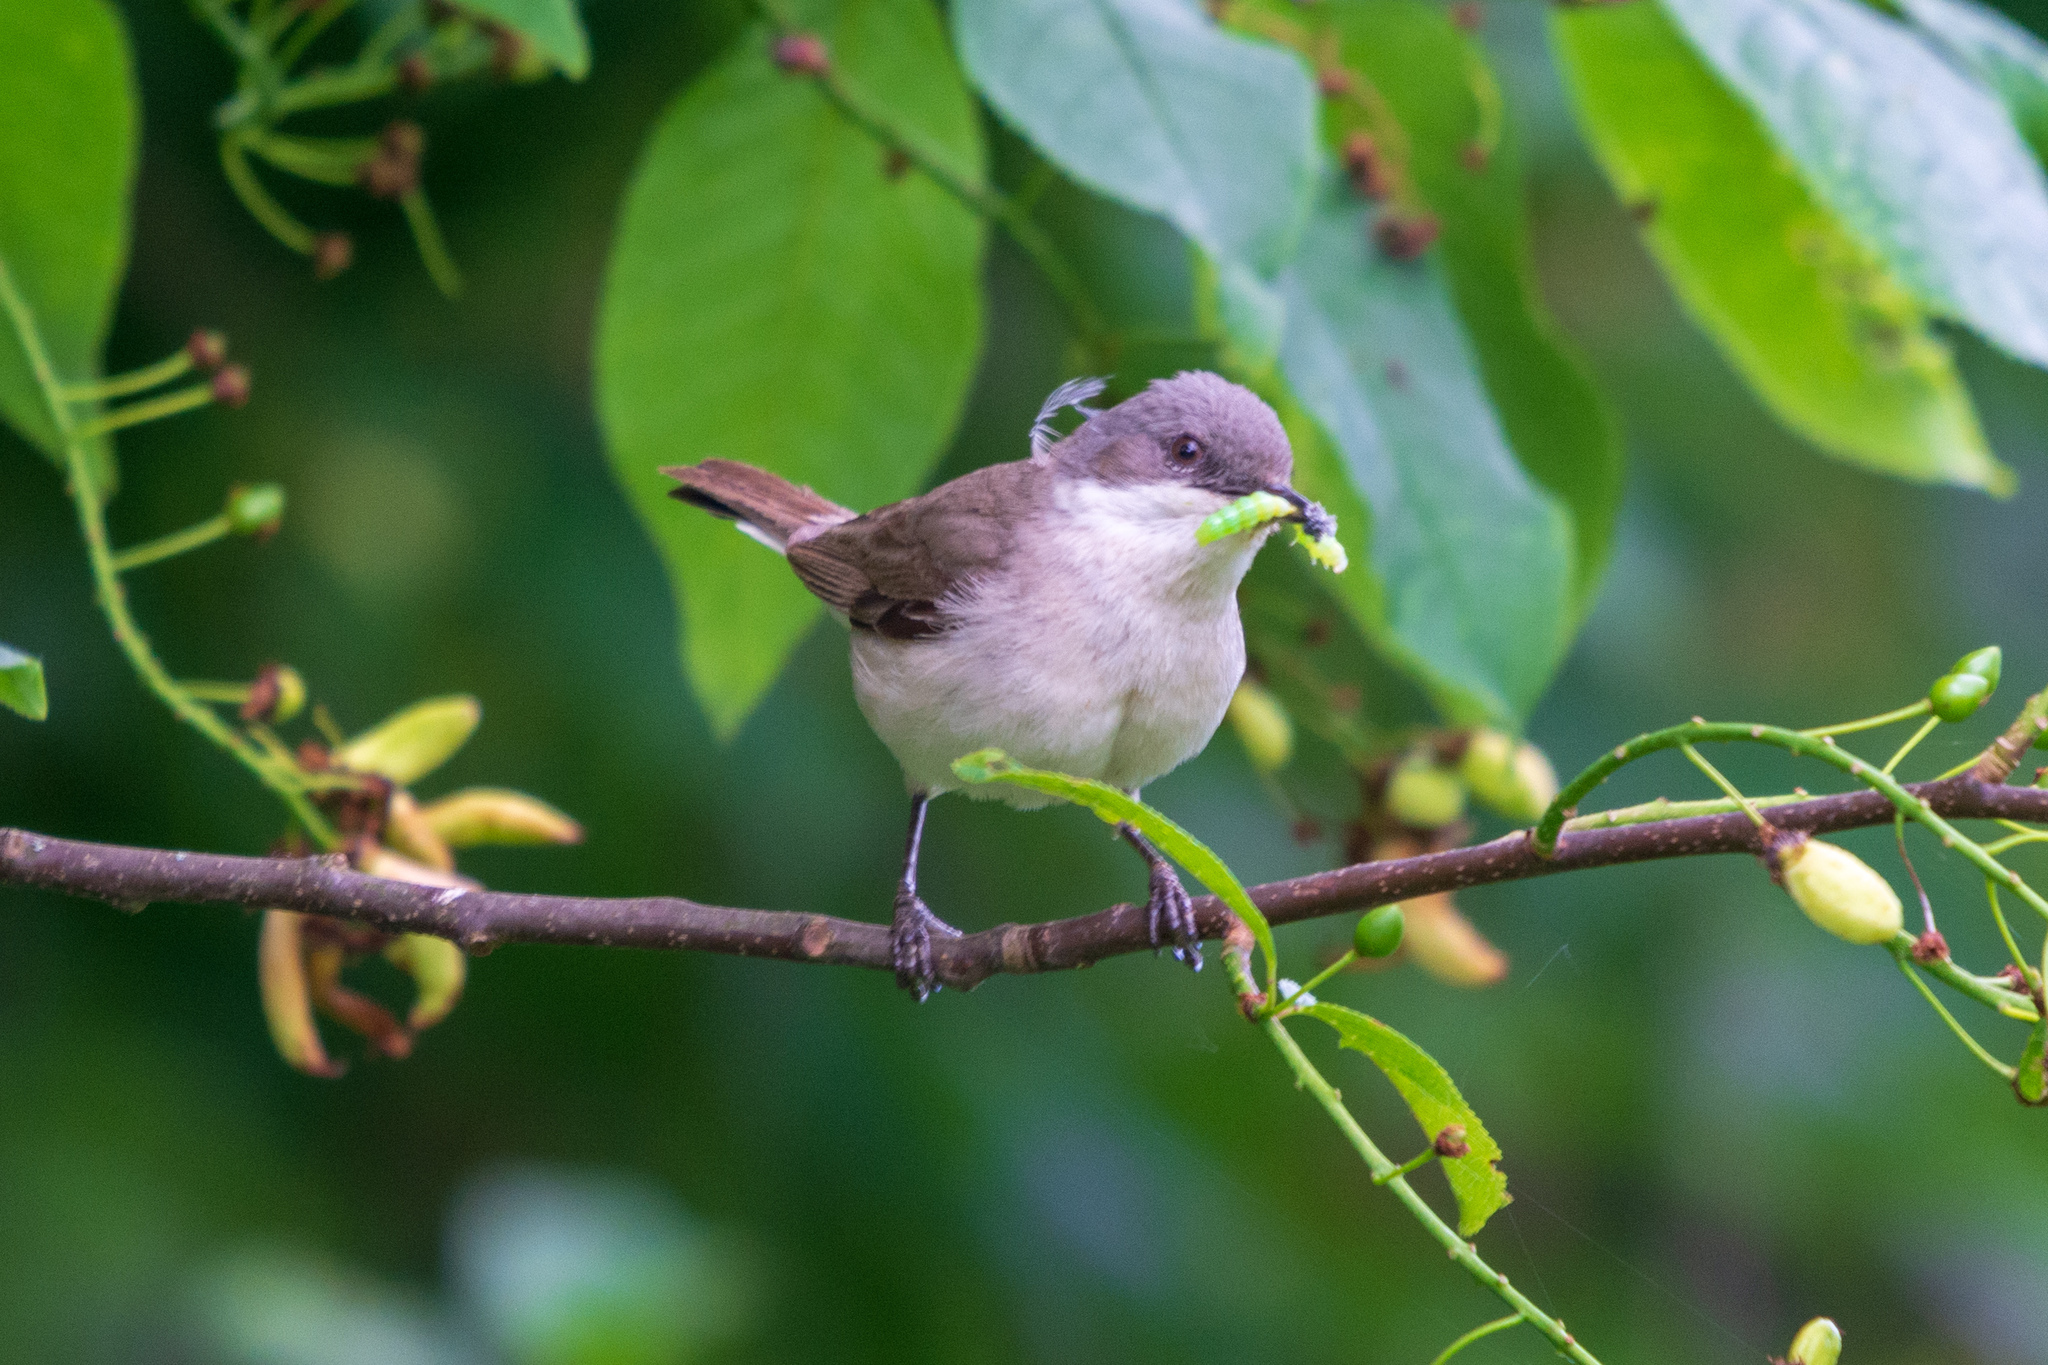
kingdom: Animalia
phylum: Chordata
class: Aves
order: Passeriformes
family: Sylviidae
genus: Sylvia
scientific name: Sylvia curruca
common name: Lesser whitethroat
